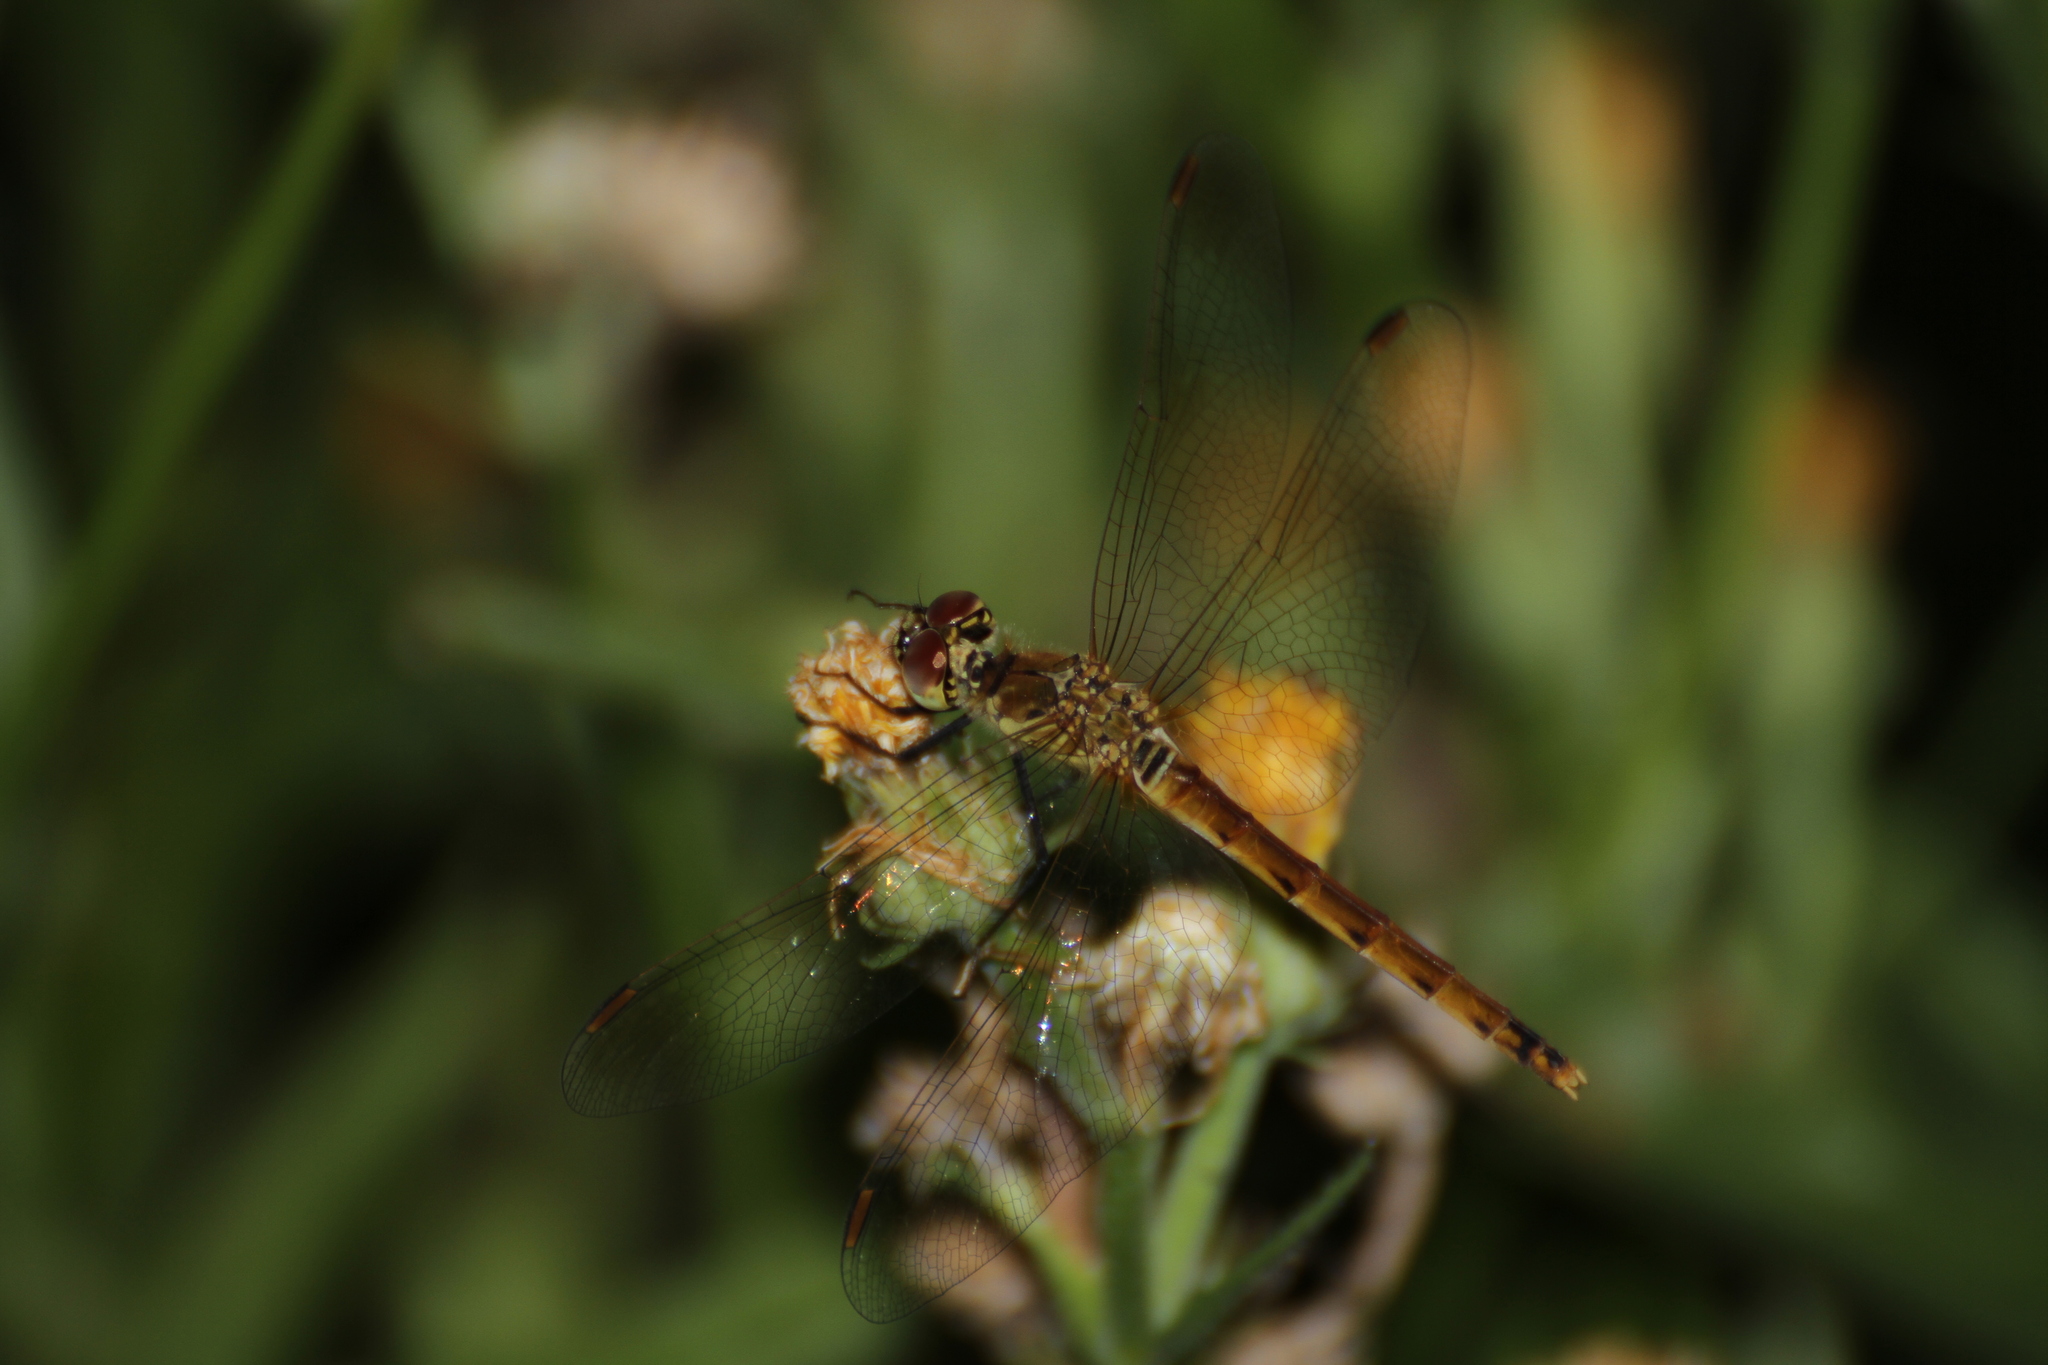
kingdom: Animalia
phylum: Arthropoda
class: Insecta
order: Odonata
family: Libellulidae
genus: Sympetrum
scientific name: Sympetrum depressiusculum
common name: Spotted darter
